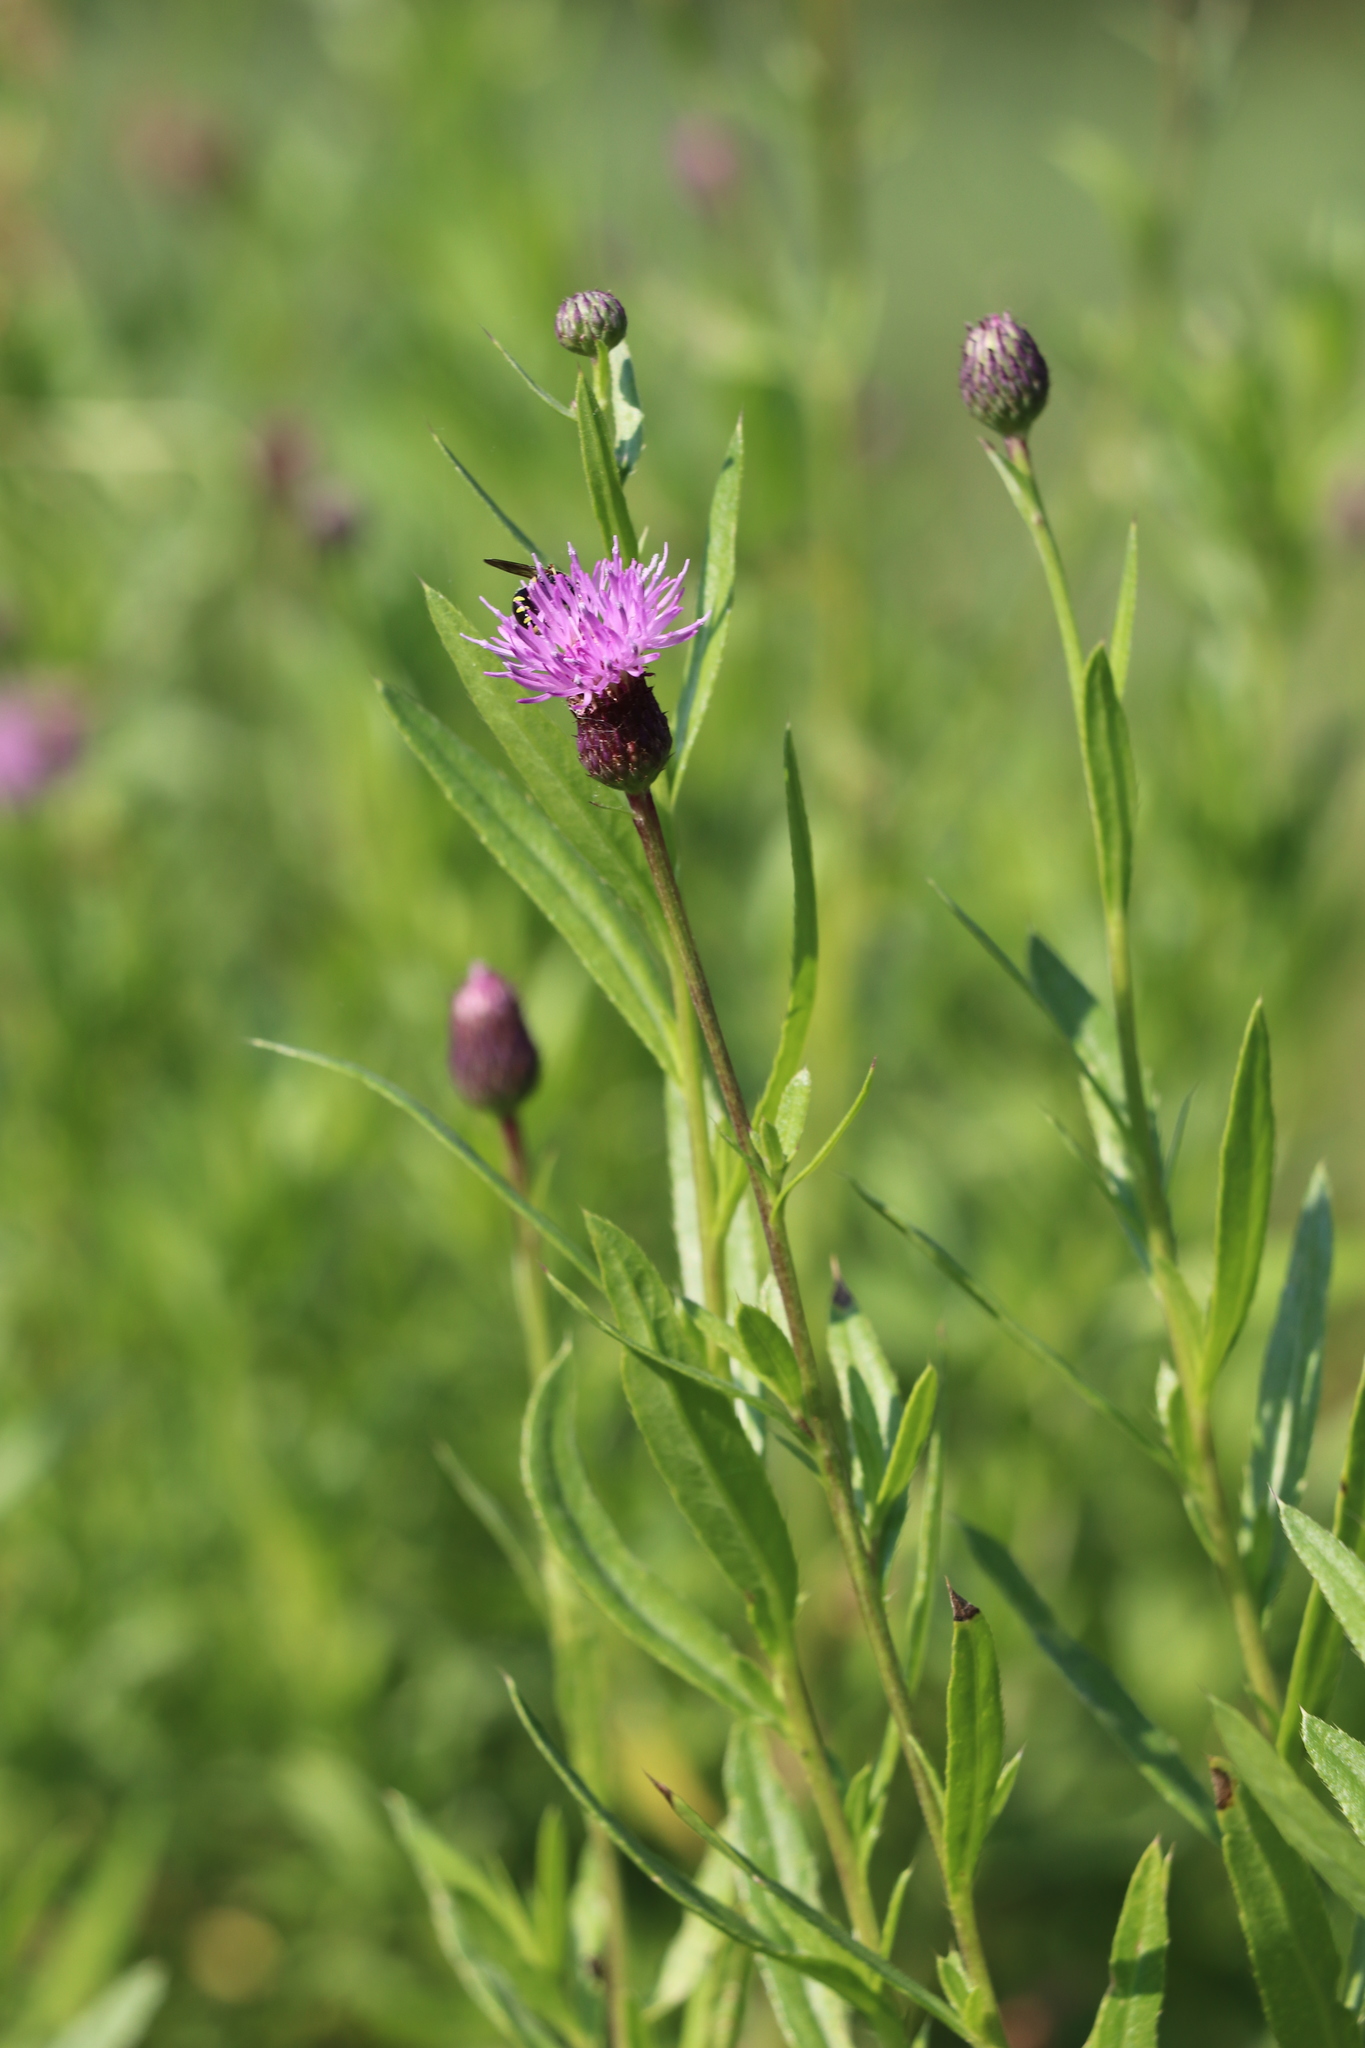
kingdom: Plantae
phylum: Tracheophyta
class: Magnoliopsida
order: Asterales
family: Asteraceae
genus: Cirsium
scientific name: Cirsium arvense
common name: Creeping thistle
